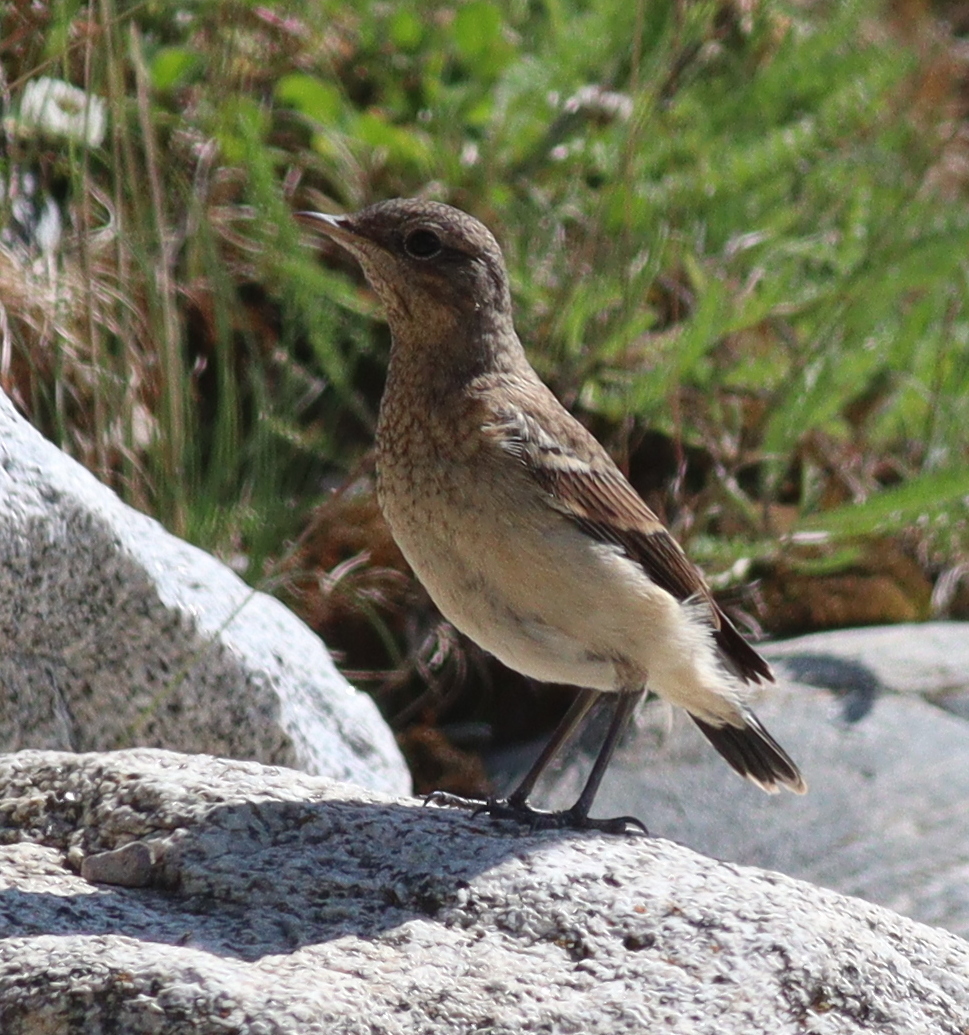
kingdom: Animalia
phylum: Chordata
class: Aves
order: Passeriformes
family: Muscicapidae
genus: Oenanthe
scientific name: Oenanthe oenanthe
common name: Northern wheatear
